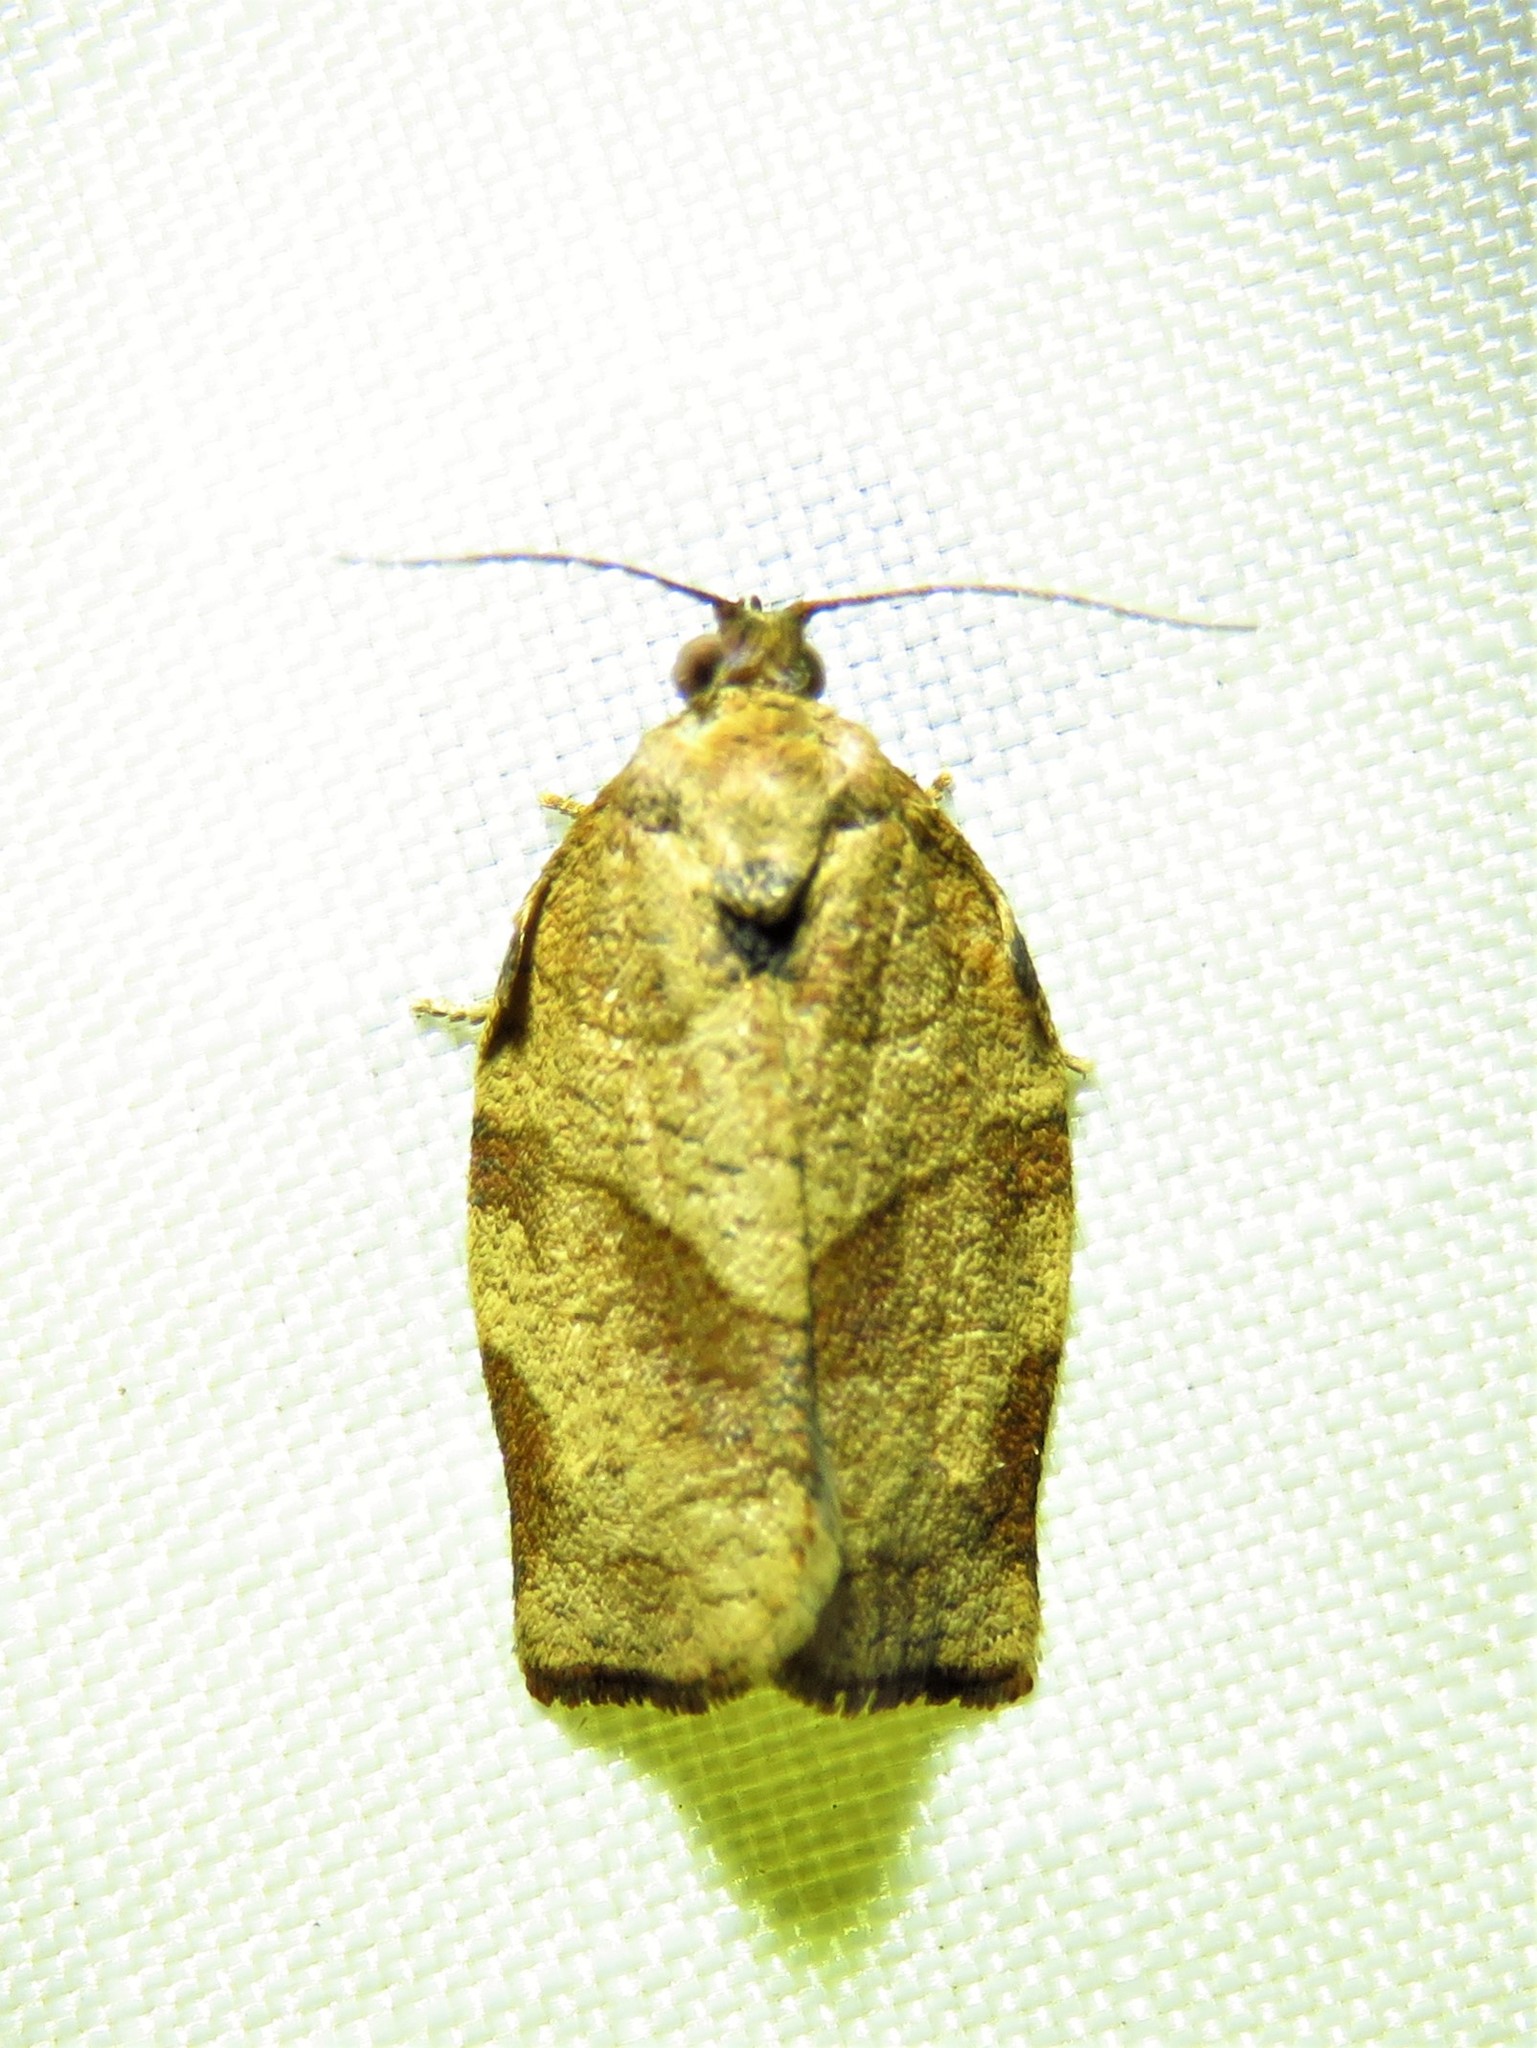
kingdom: Animalia
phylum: Arthropoda
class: Insecta
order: Lepidoptera
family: Tortricidae
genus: Choristoneura
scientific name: Choristoneura rosaceana
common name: Oblique-banded leafroller moth
